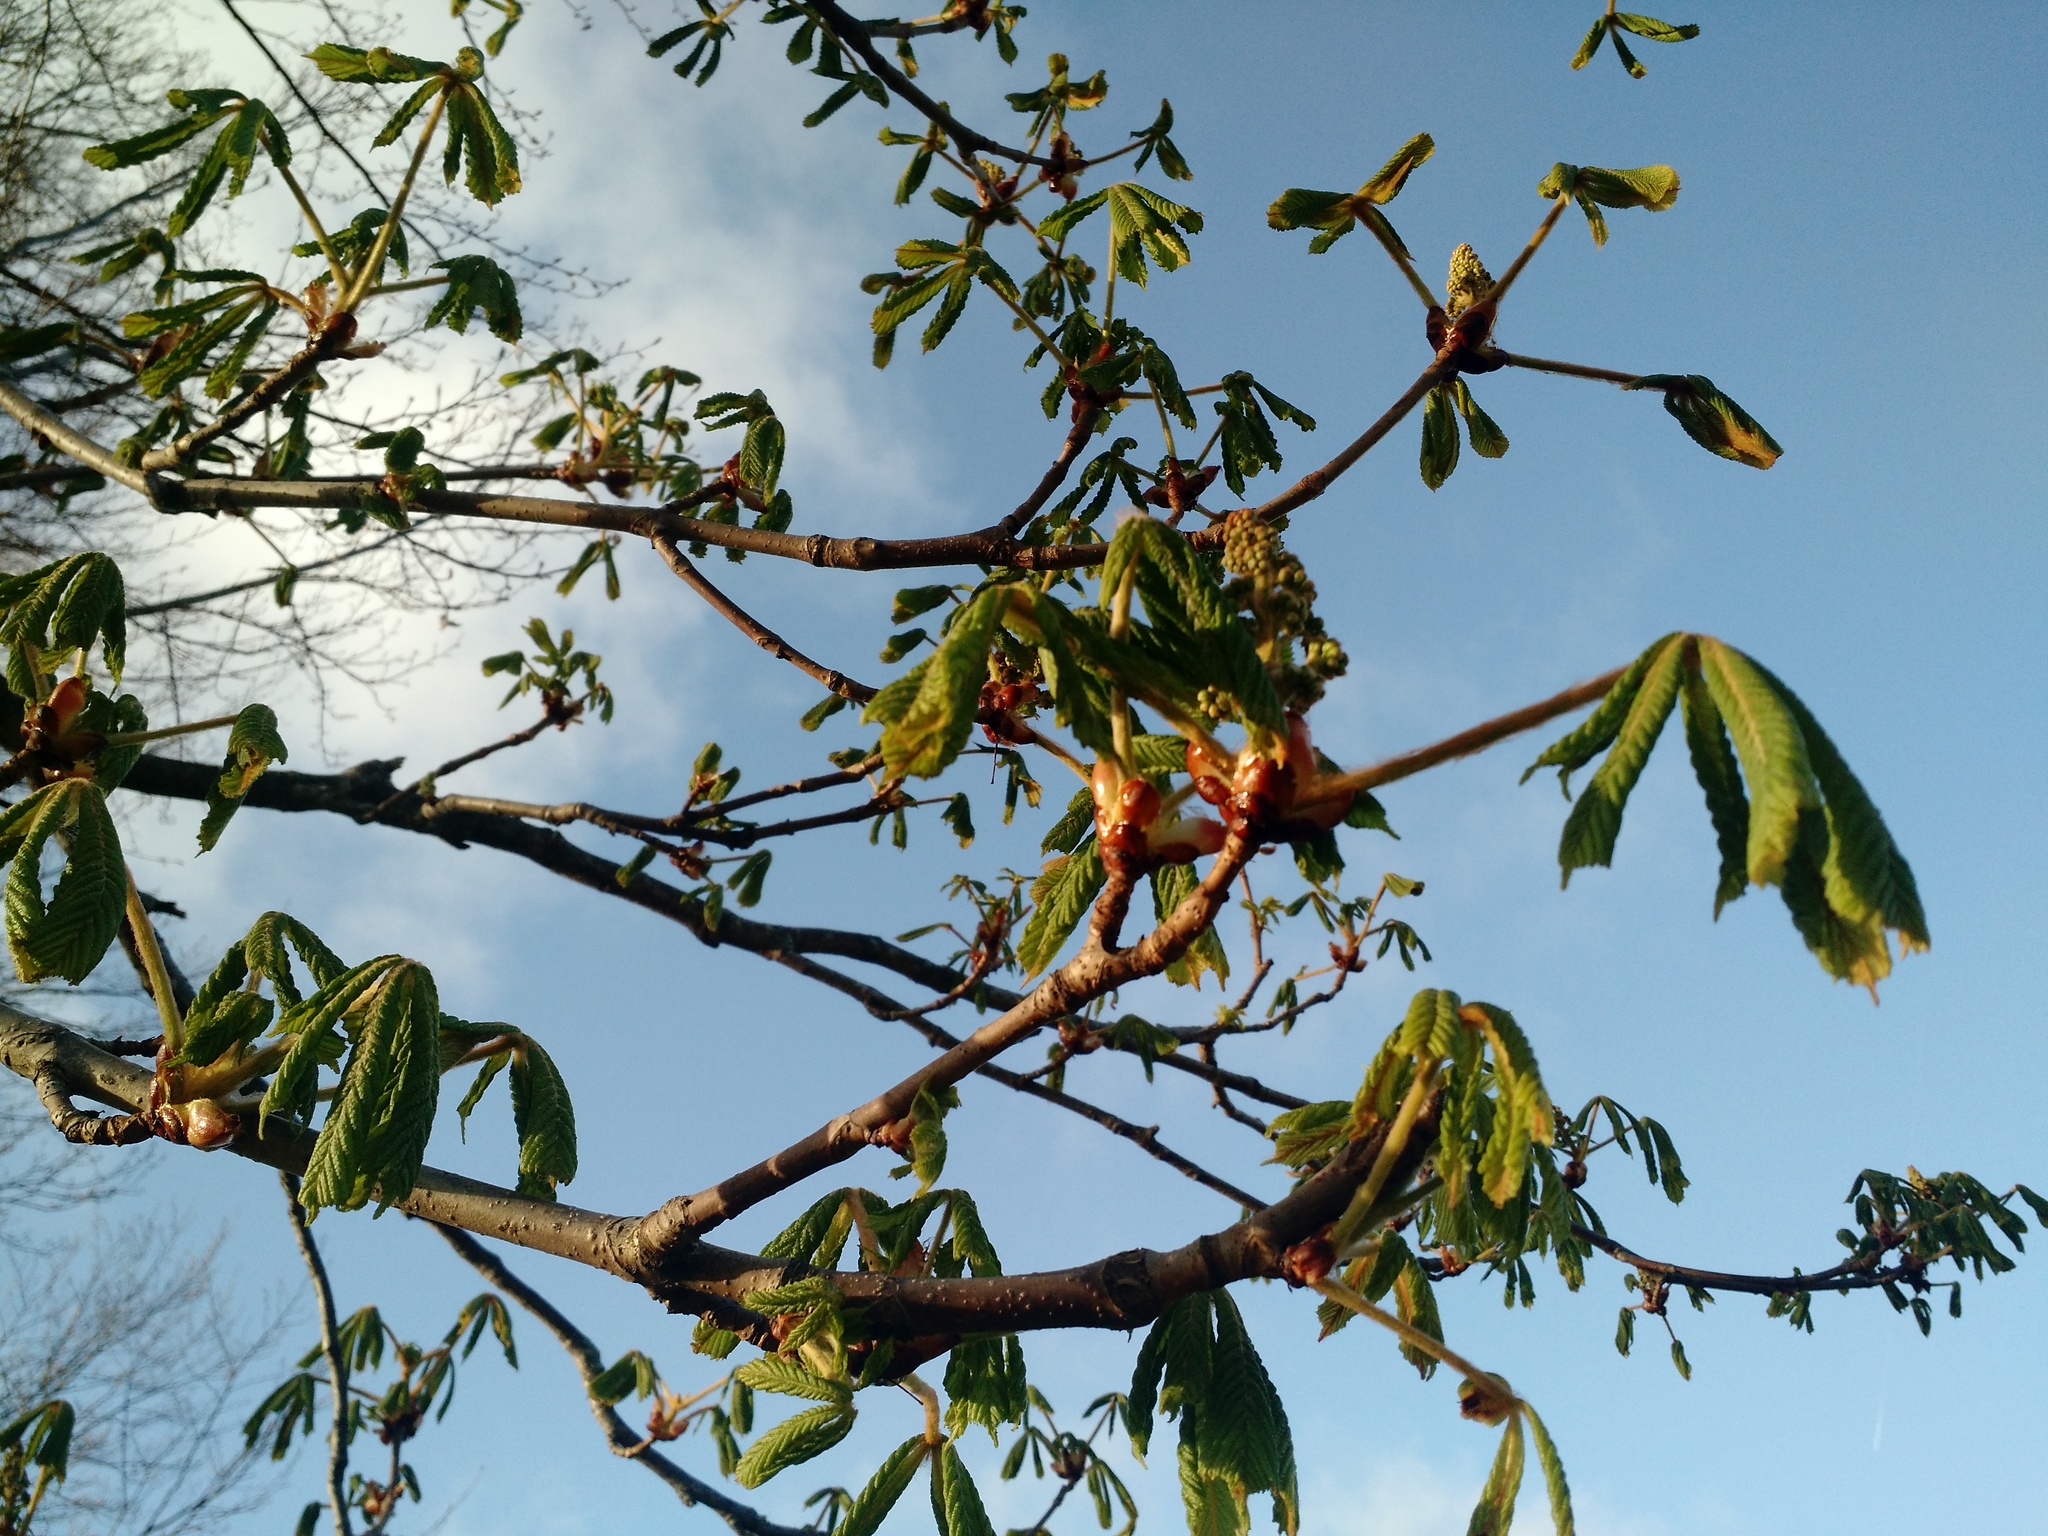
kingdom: Plantae
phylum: Tracheophyta
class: Magnoliopsida
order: Sapindales
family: Sapindaceae
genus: Aesculus
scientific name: Aesculus hippocastanum
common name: Horse-chestnut
